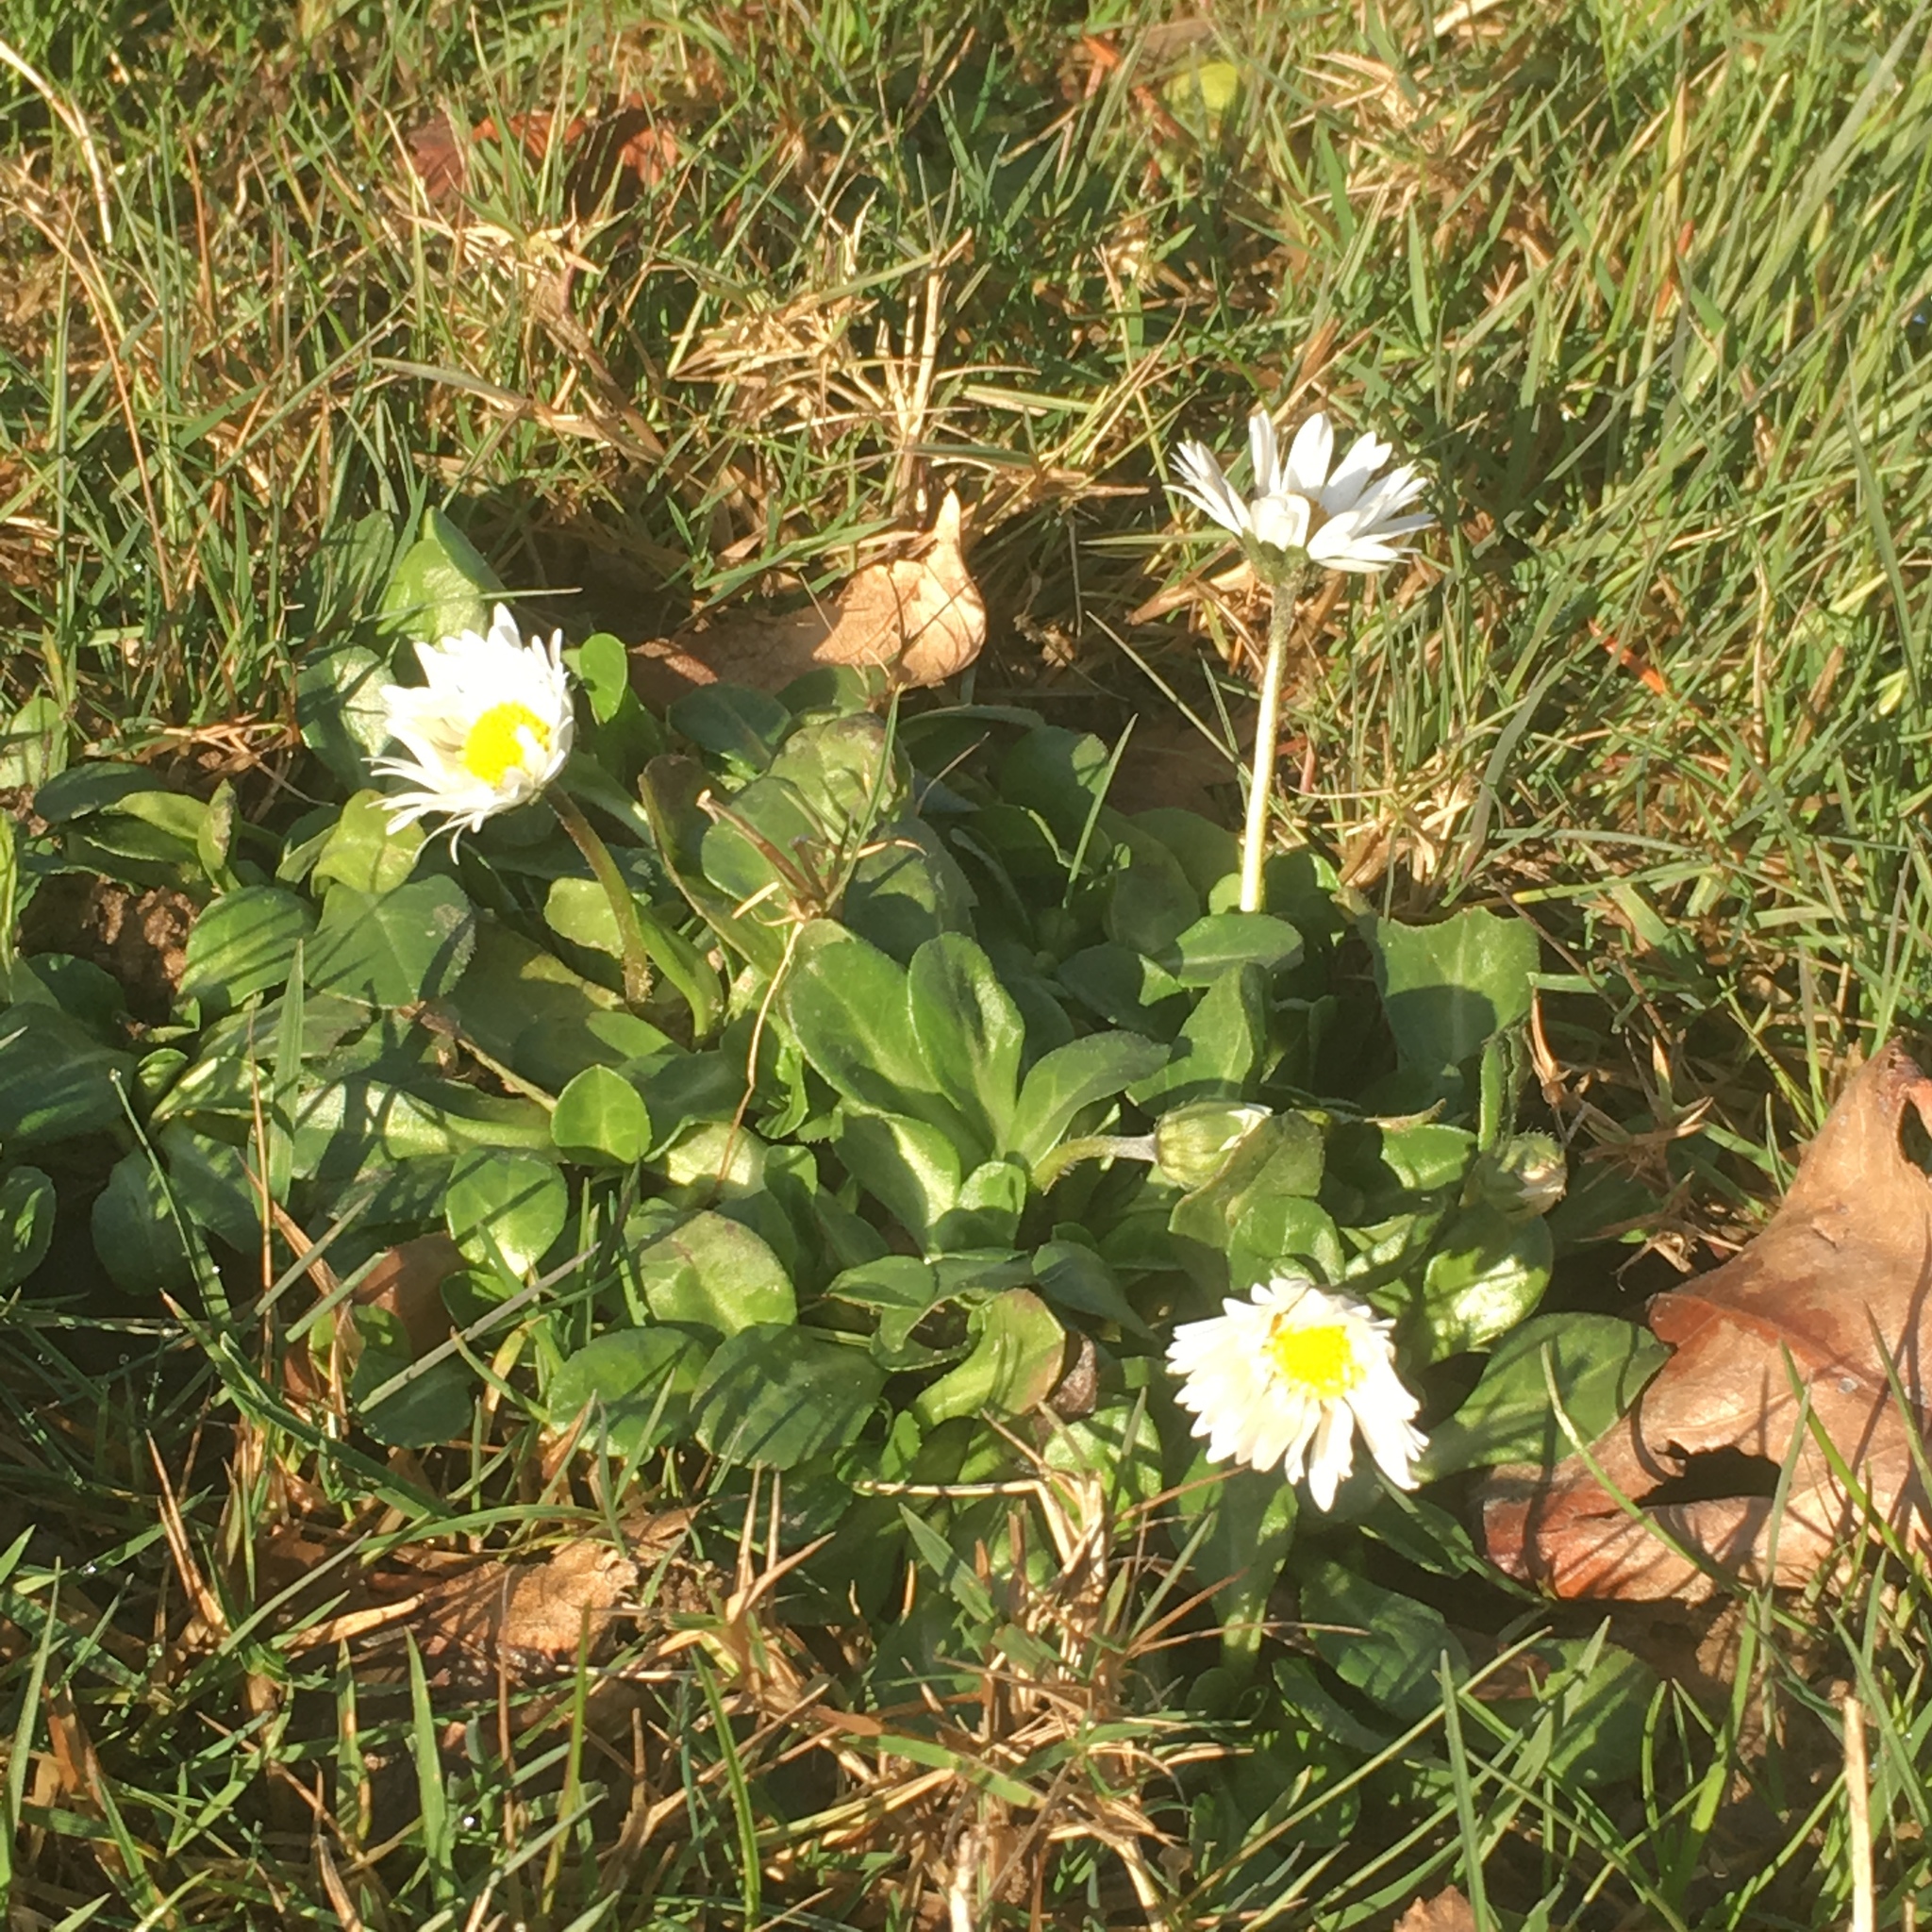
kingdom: Plantae
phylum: Tracheophyta
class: Magnoliopsida
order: Asterales
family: Asteraceae
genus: Bellis
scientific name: Bellis perennis
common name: Lawndaisy
